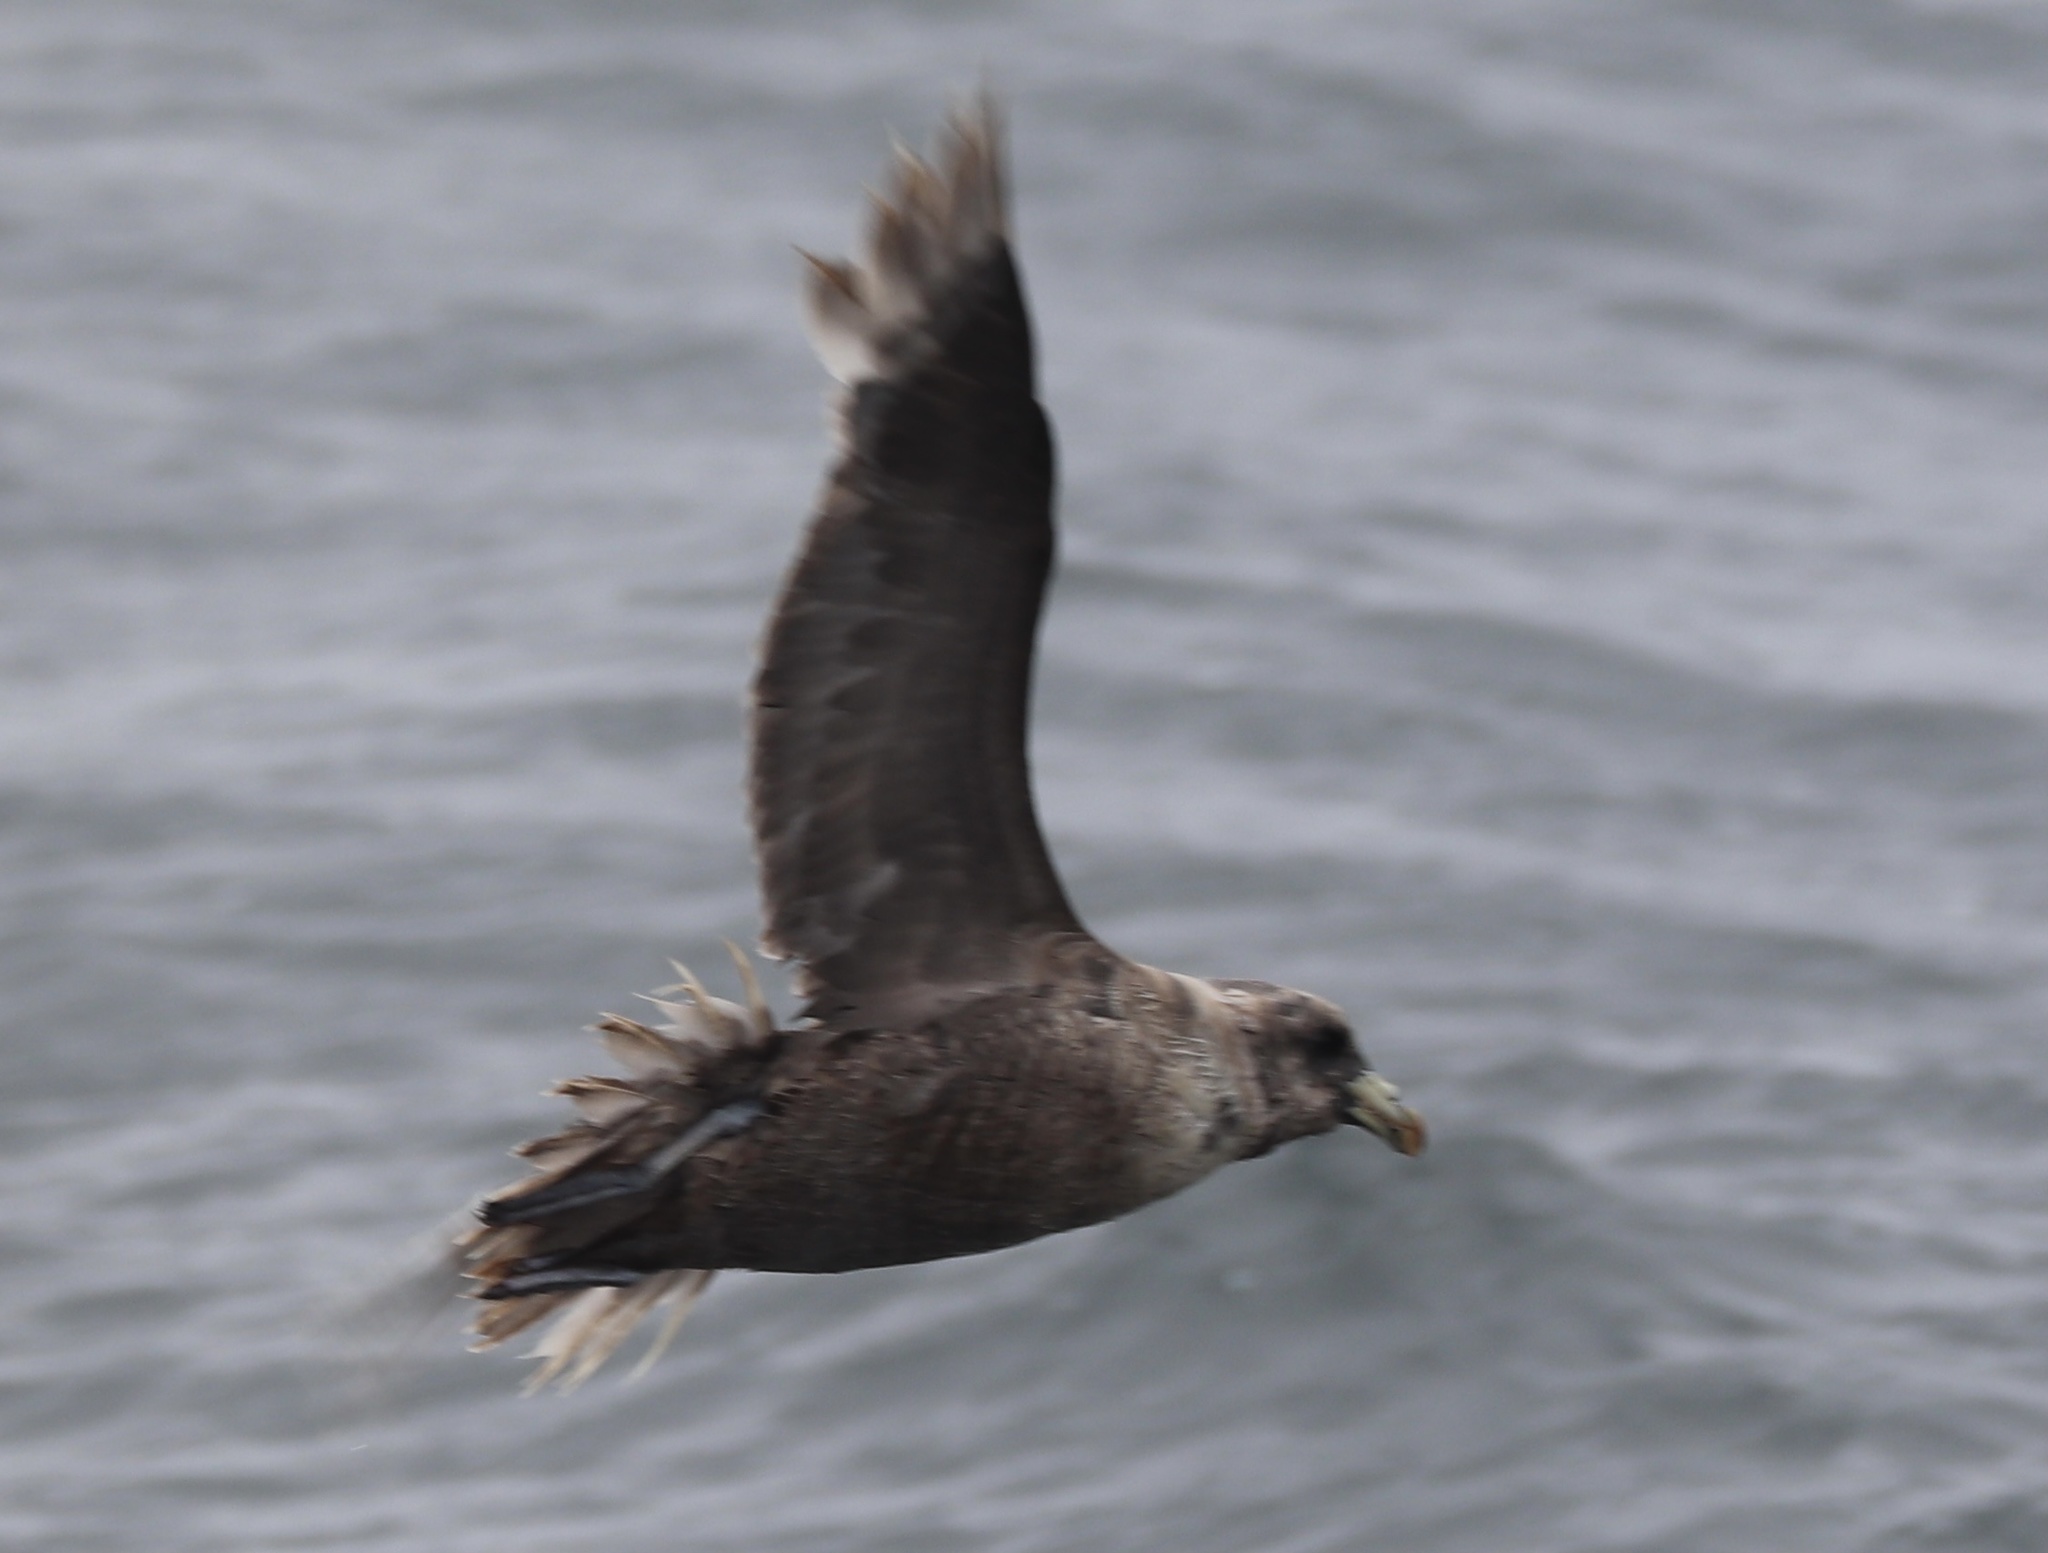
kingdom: Animalia
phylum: Chordata
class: Aves
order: Procellariiformes
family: Procellariidae
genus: Fulmarus
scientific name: Fulmarus glacialis
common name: Northern fulmar
